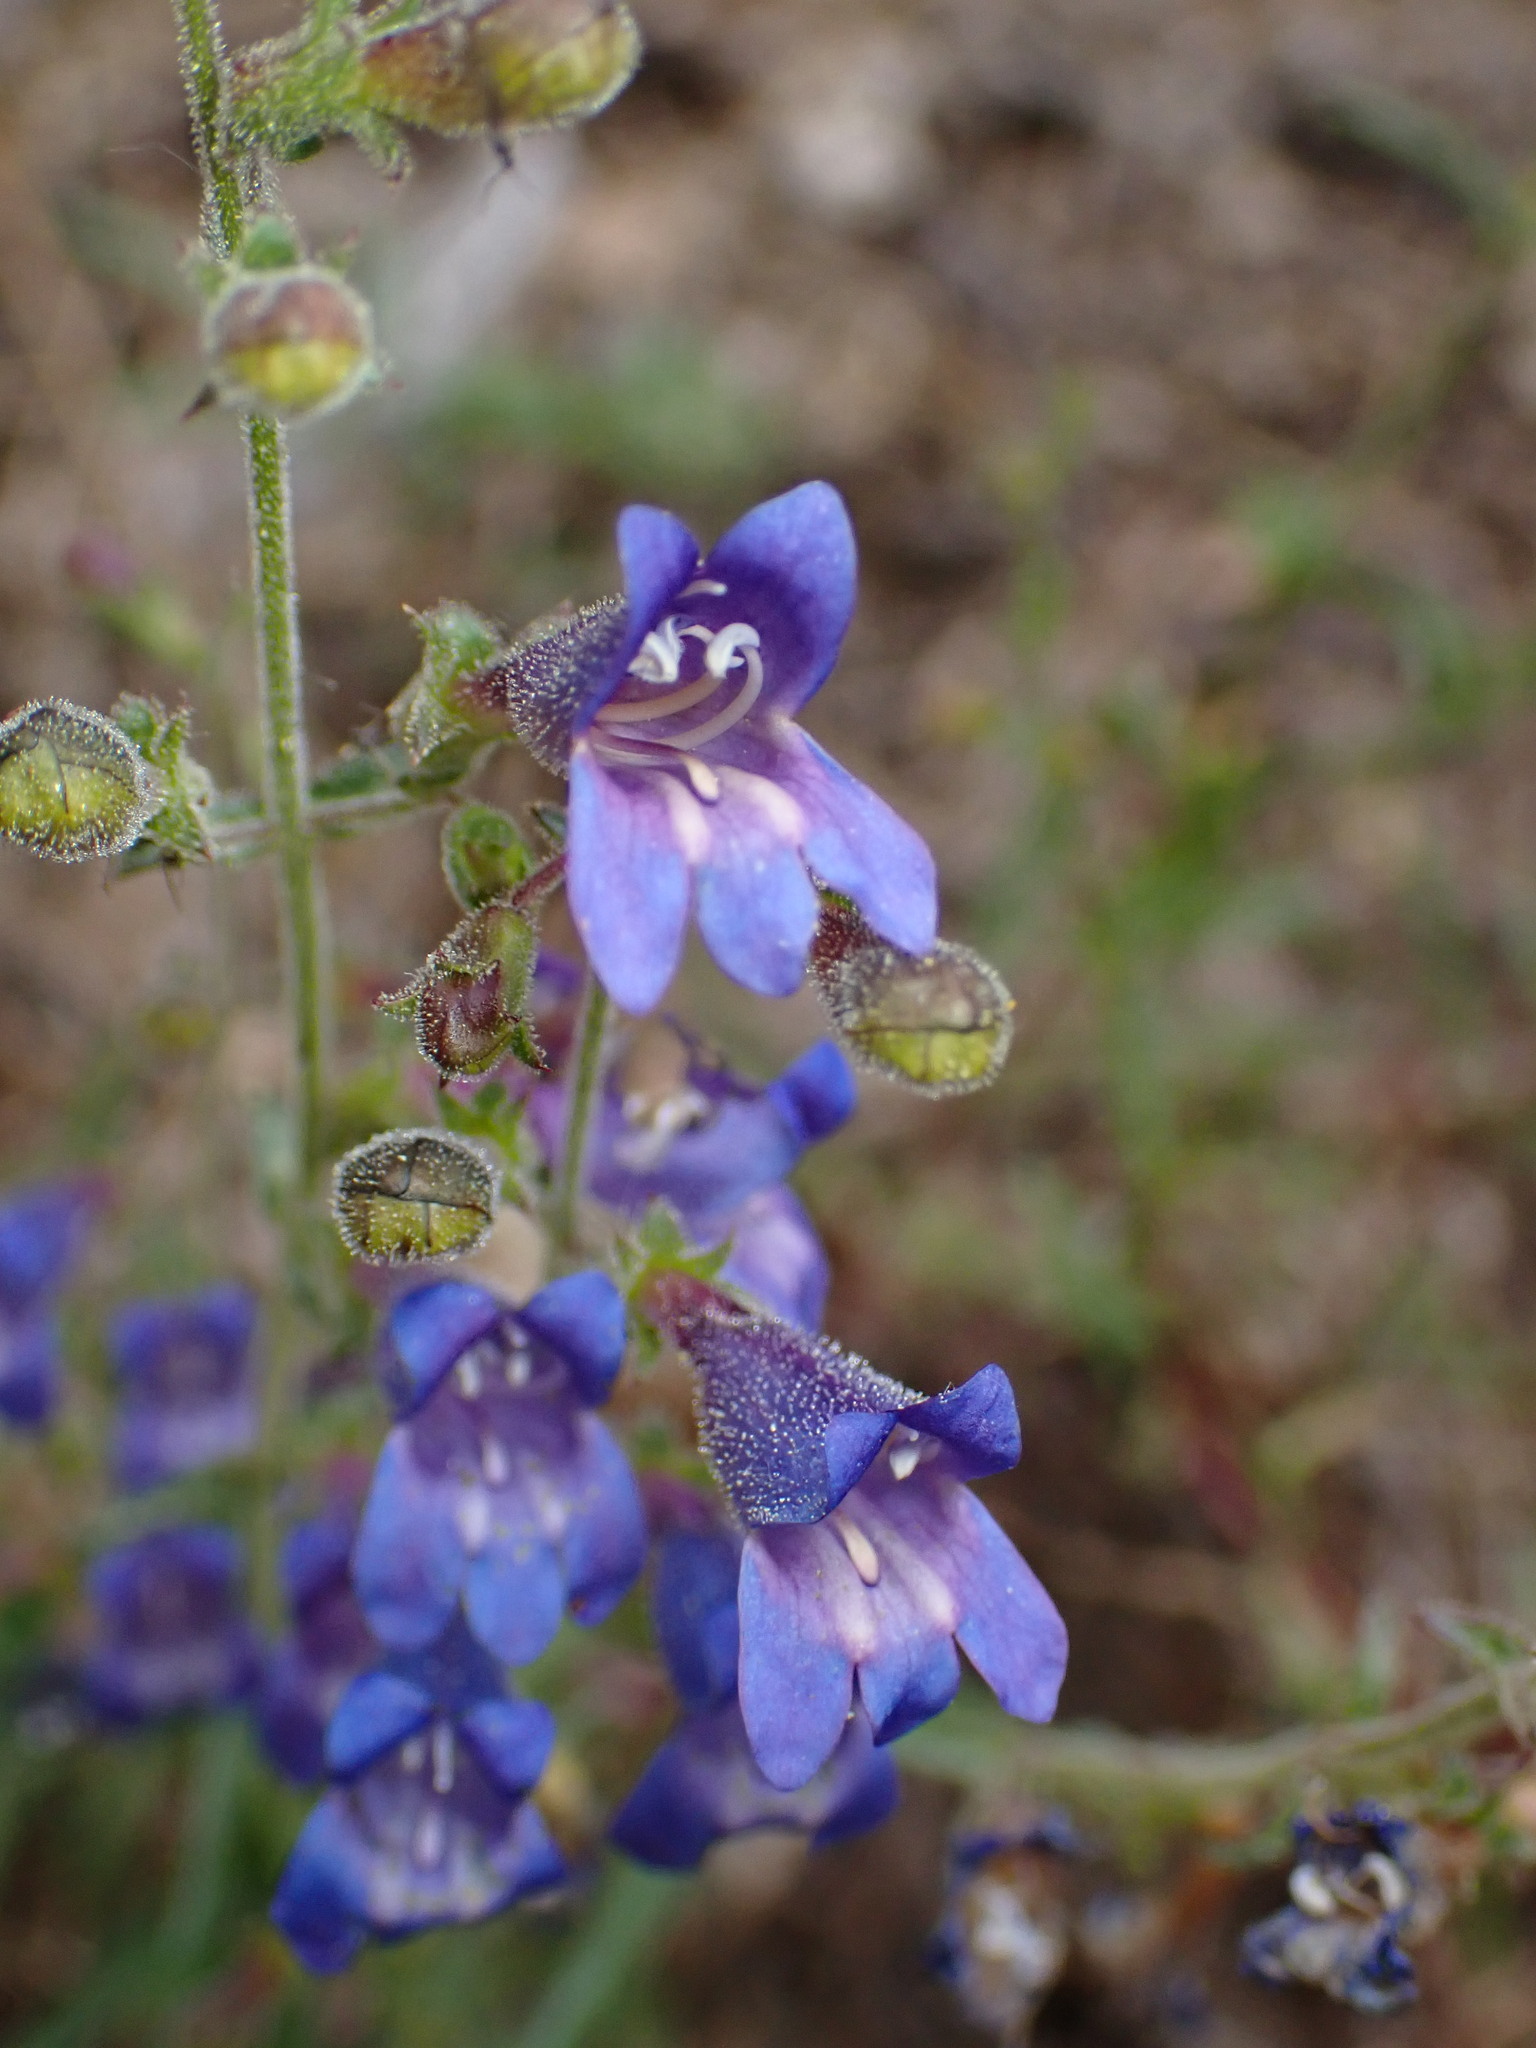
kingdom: Plantae
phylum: Tracheophyta
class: Magnoliopsida
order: Lamiales
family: Plantaginaceae
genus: Penstemon
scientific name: Penstemon laetus
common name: Gay penstemon
